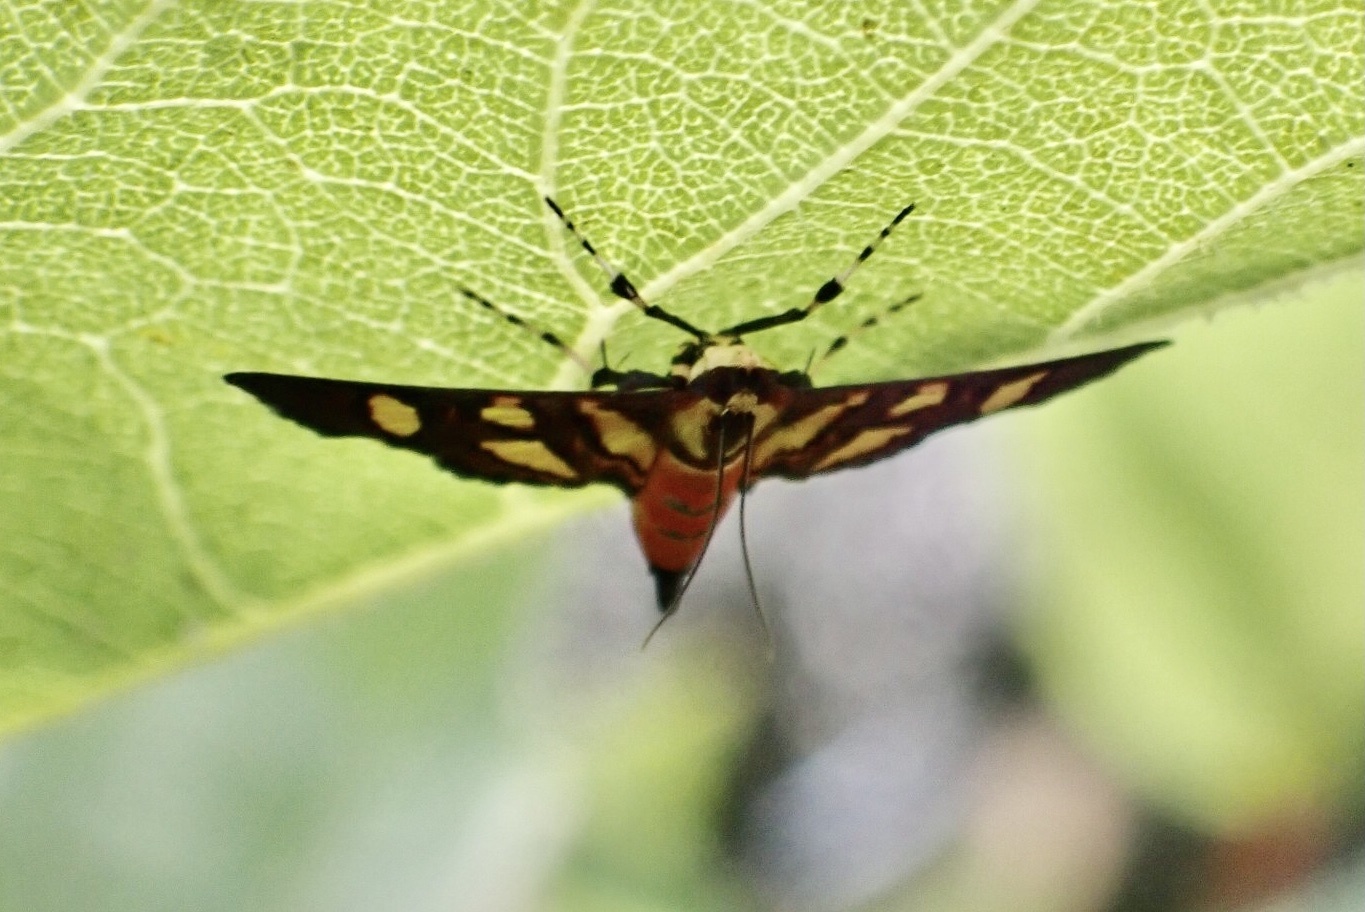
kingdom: Animalia
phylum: Arthropoda
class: Insecta
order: Lepidoptera
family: Crambidae
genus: Syngamia
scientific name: Syngamia florella
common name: Orange-spotted flower moth
